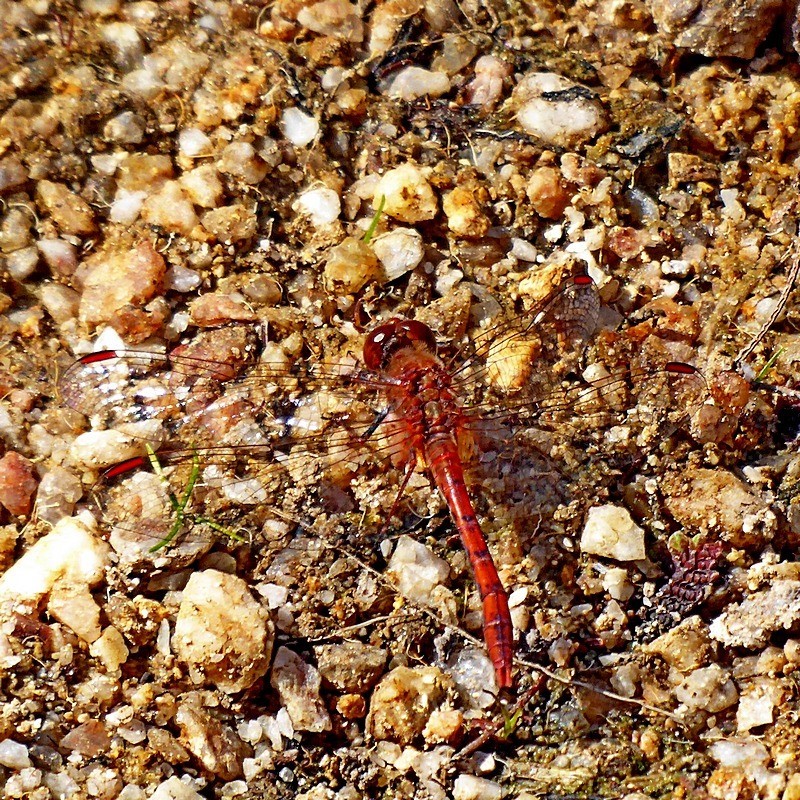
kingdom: Animalia
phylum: Arthropoda
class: Insecta
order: Odonata
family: Libellulidae
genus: Diplacodes
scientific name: Diplacodes bipunctata
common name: Red percher dragonfly
